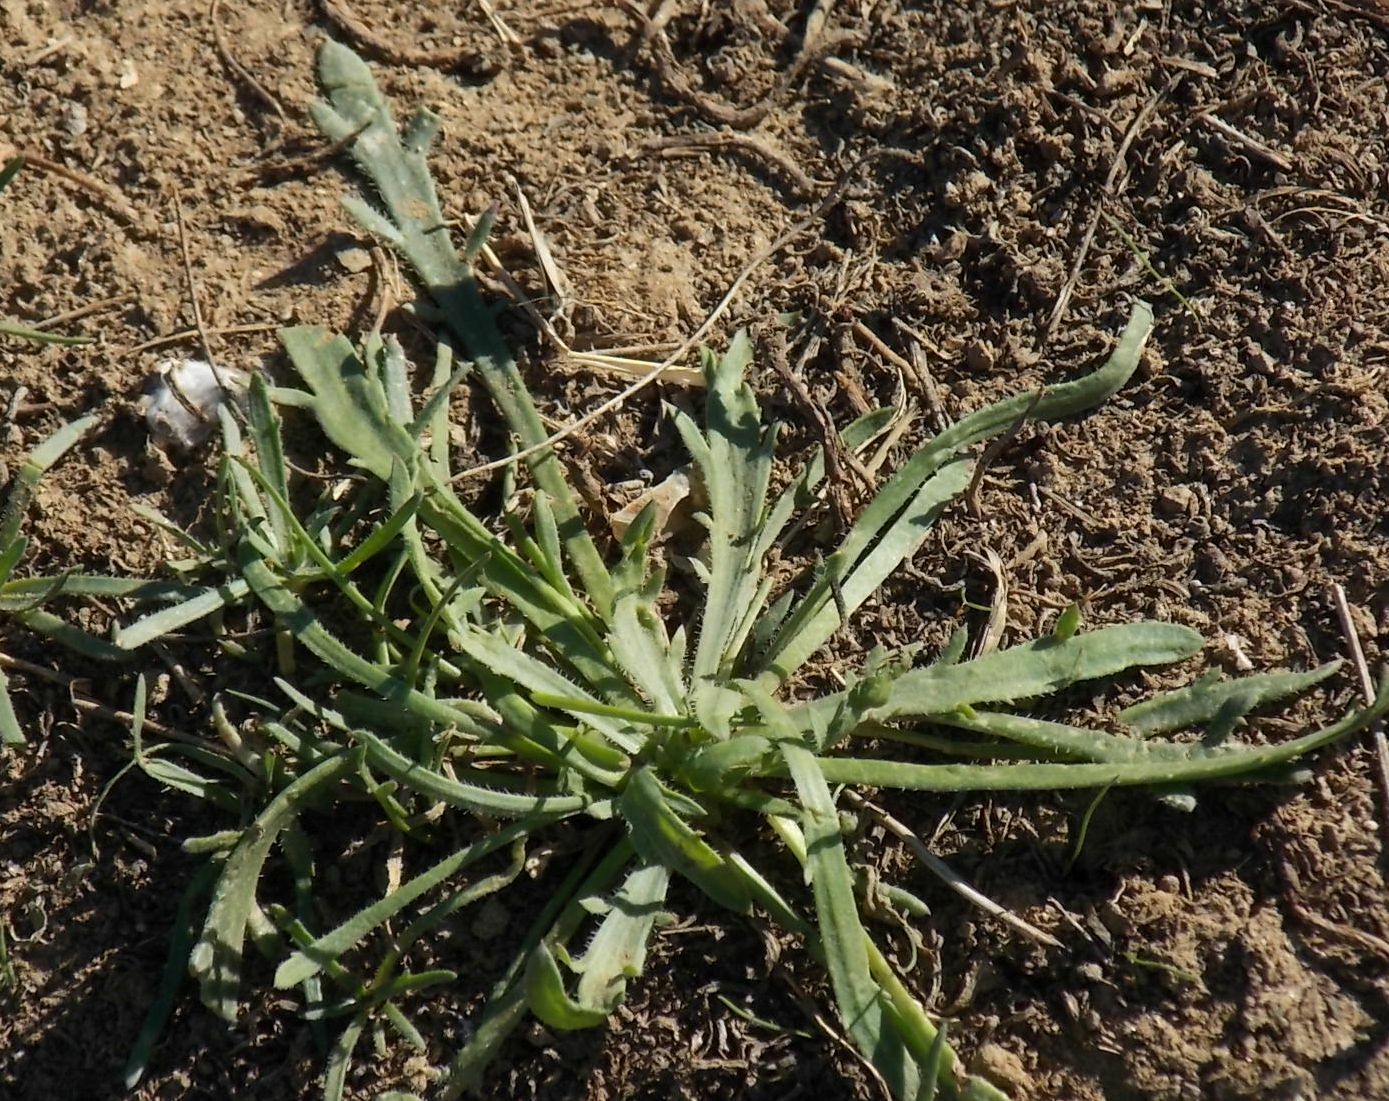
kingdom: Plantae
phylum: Tracheophyta
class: Magnoliopsida
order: Lamiales
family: Plantaginaceae
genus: Plantago
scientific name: Plantago coronopus
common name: Buck's-horn plantain
